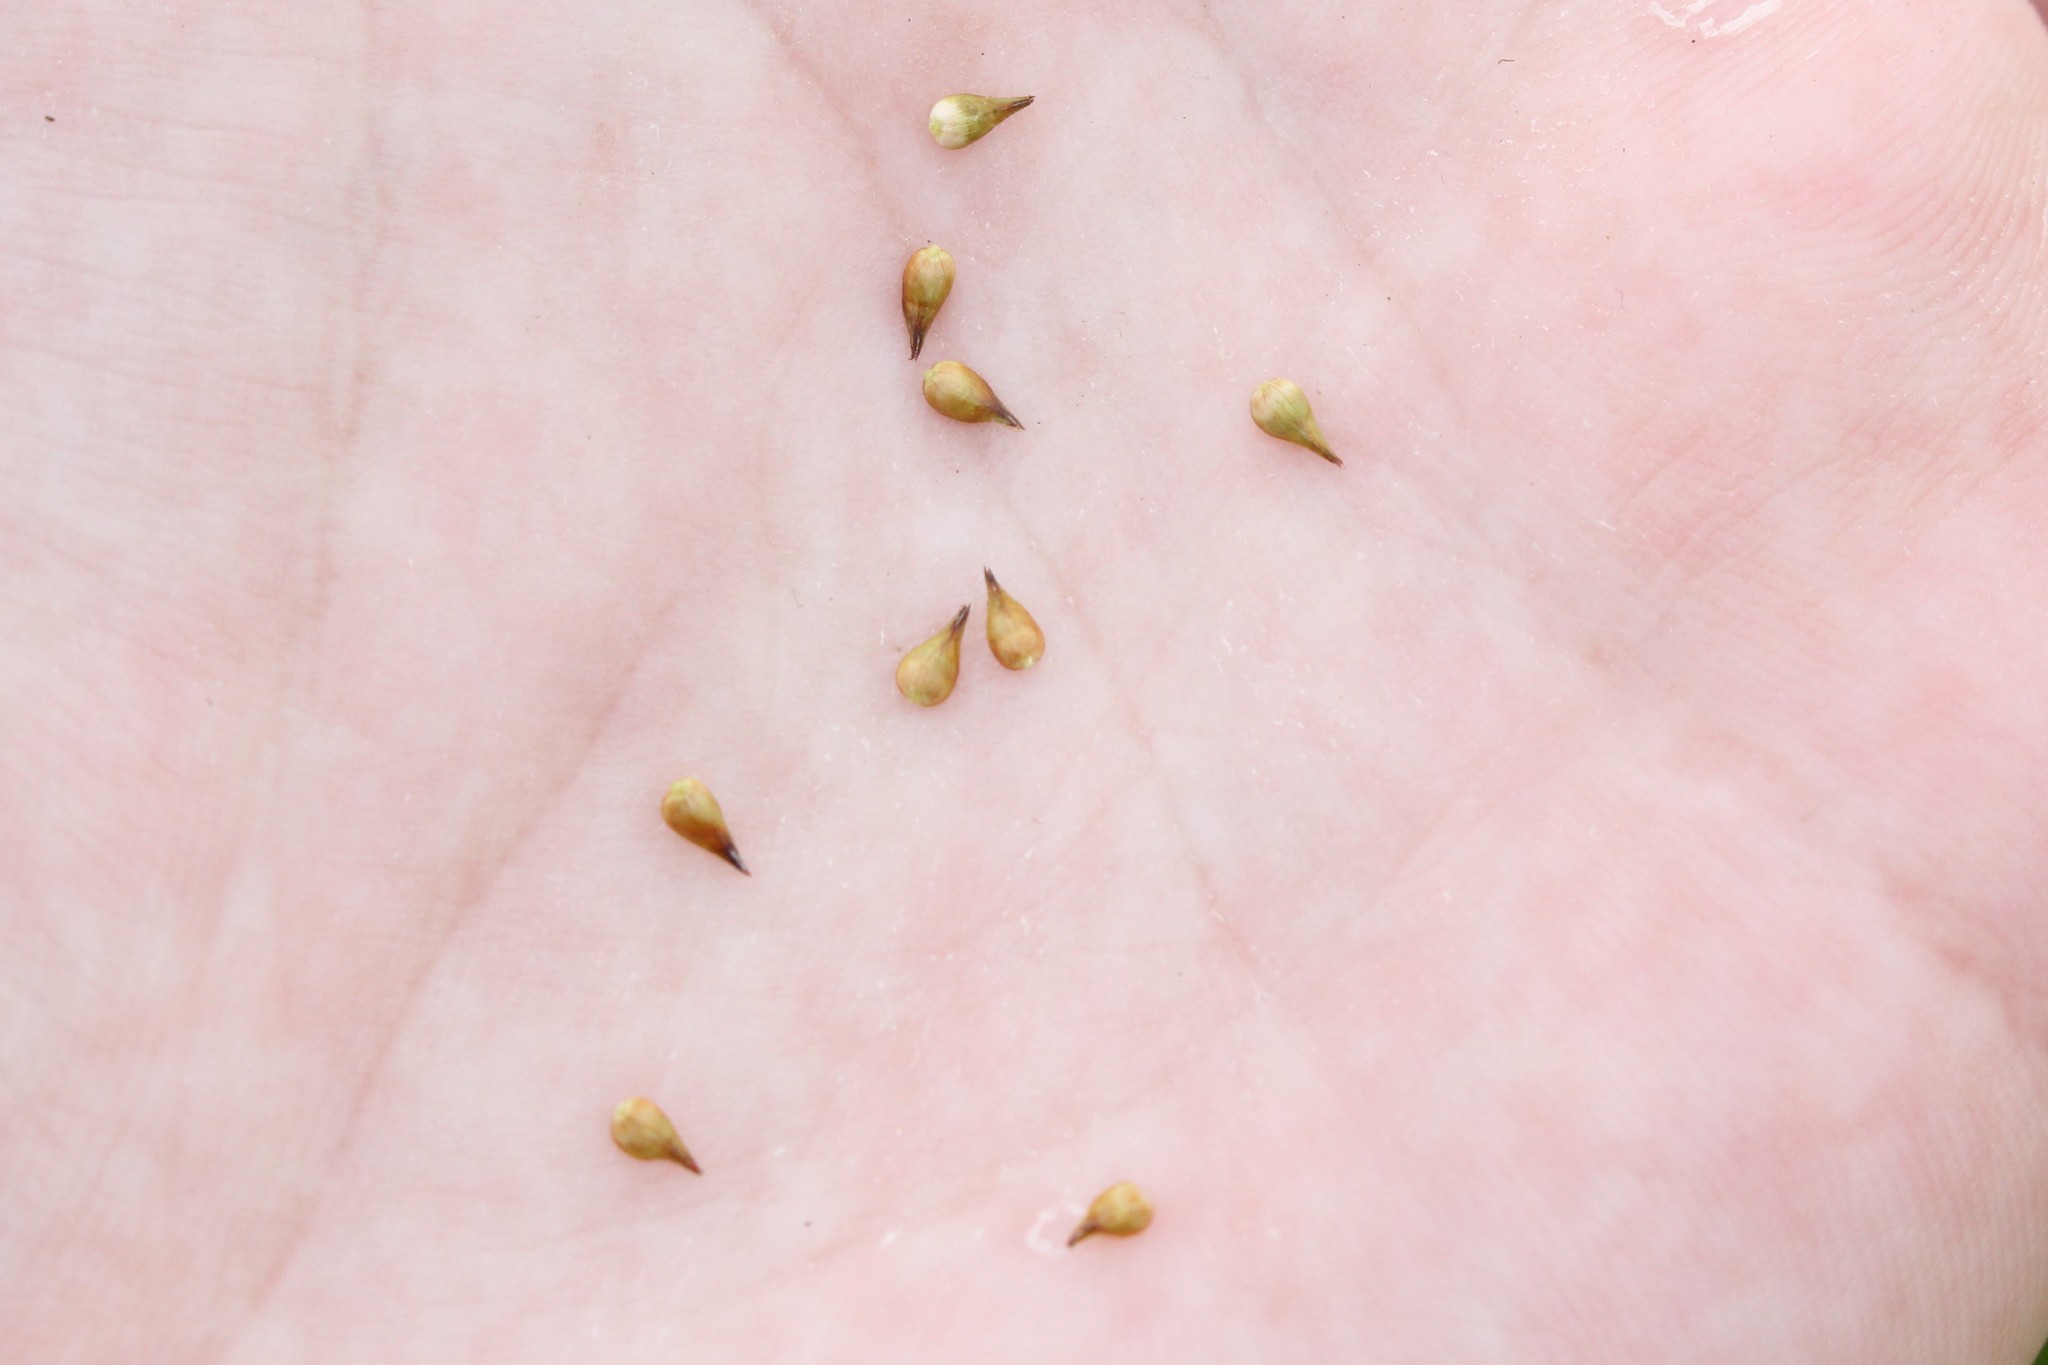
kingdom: Plantae
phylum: Tracheophyta
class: Liliopsida
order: Poales
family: Cyperaceae
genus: Carex
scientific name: Carex alopecoidea
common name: Brown-headed fox sedge
